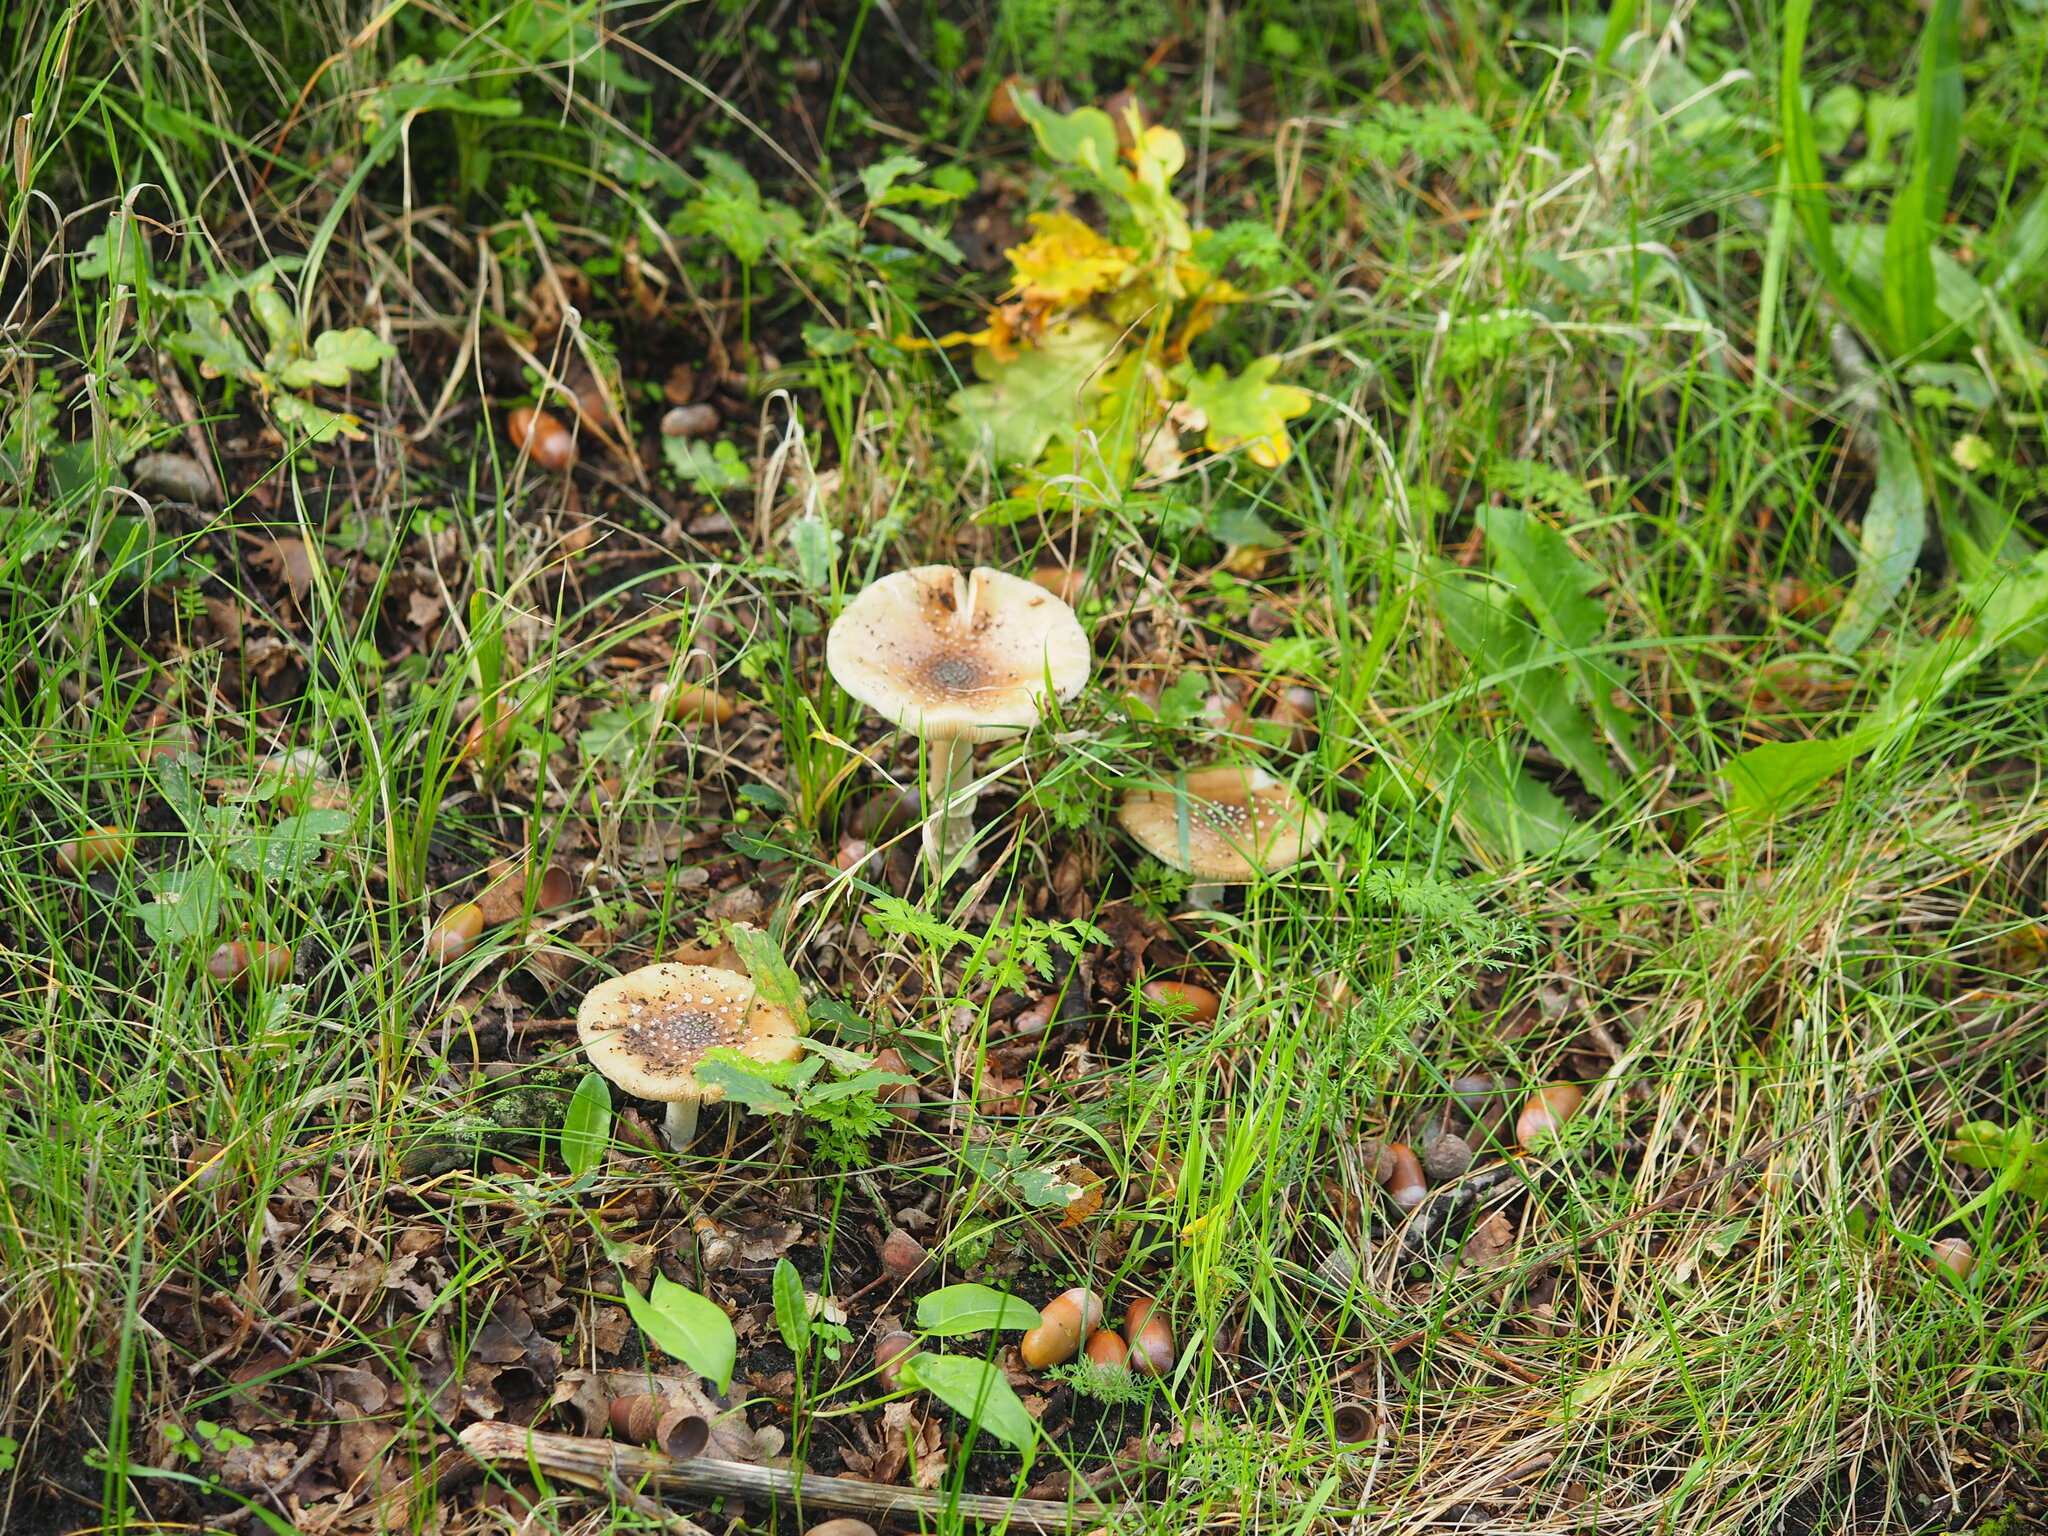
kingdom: Fungi
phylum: Basidiomycota
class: Agaricomycetes
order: Agaricales
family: Amanitaceae
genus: Amanita
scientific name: Amanita pantherina
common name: Panthercap
